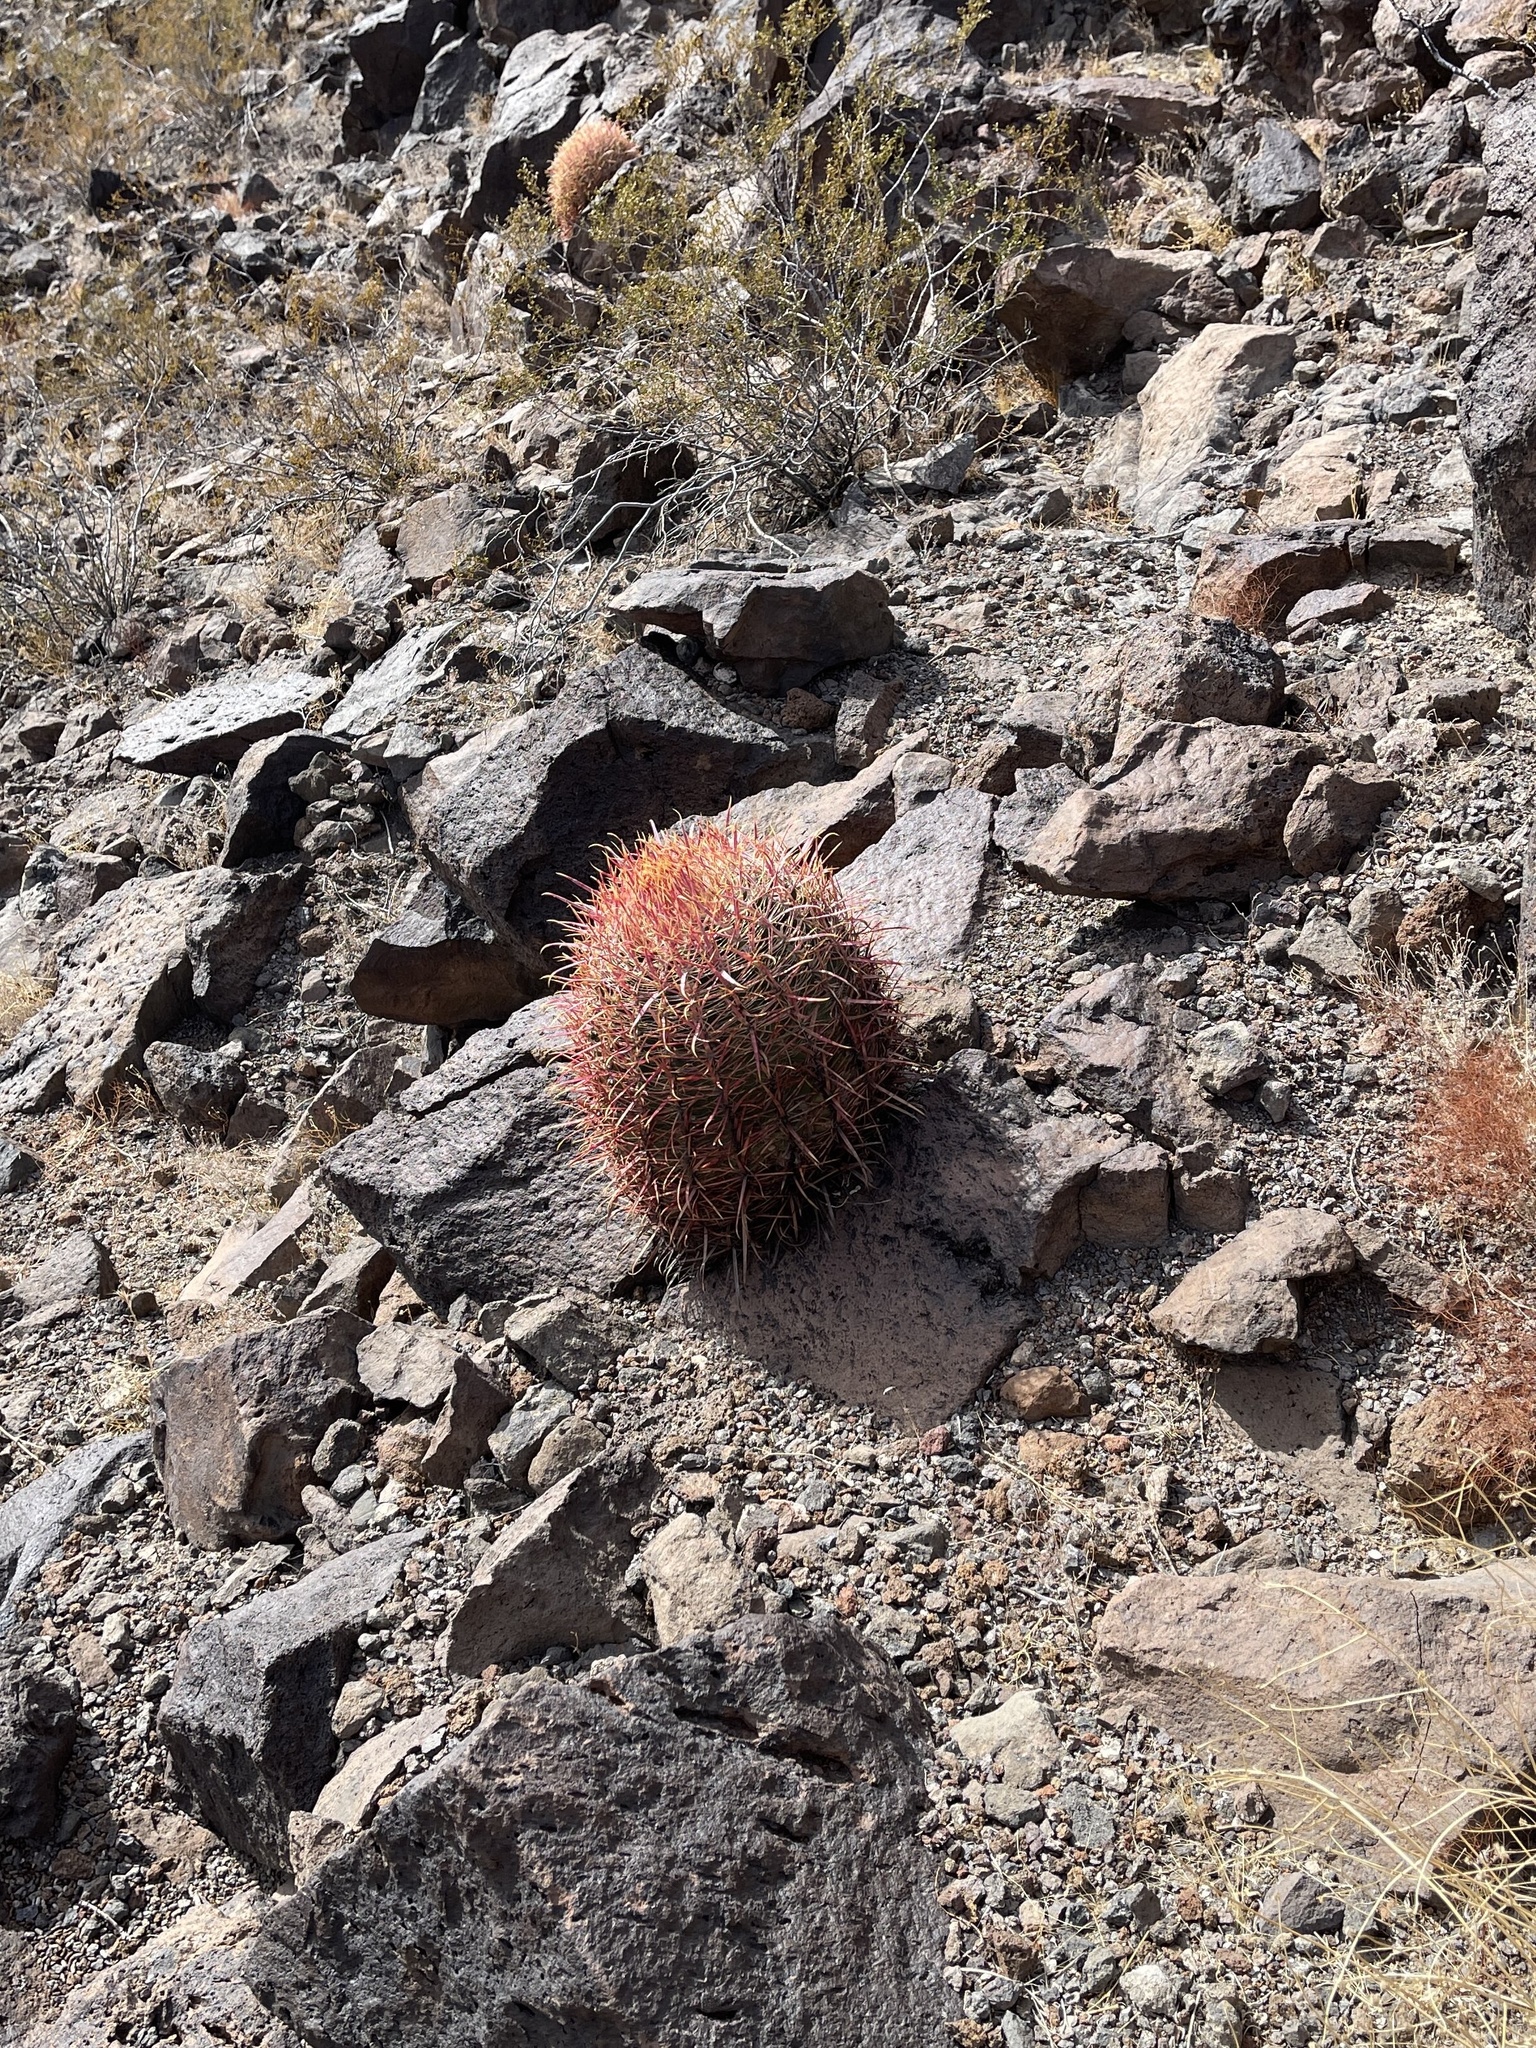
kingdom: Plantae
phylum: Tracheophyta
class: Magnoliopsida
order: Caryophyllales
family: Cactaceae
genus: Ferocactus
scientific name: Ferocactus cylindraceus
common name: California barrel cactus
